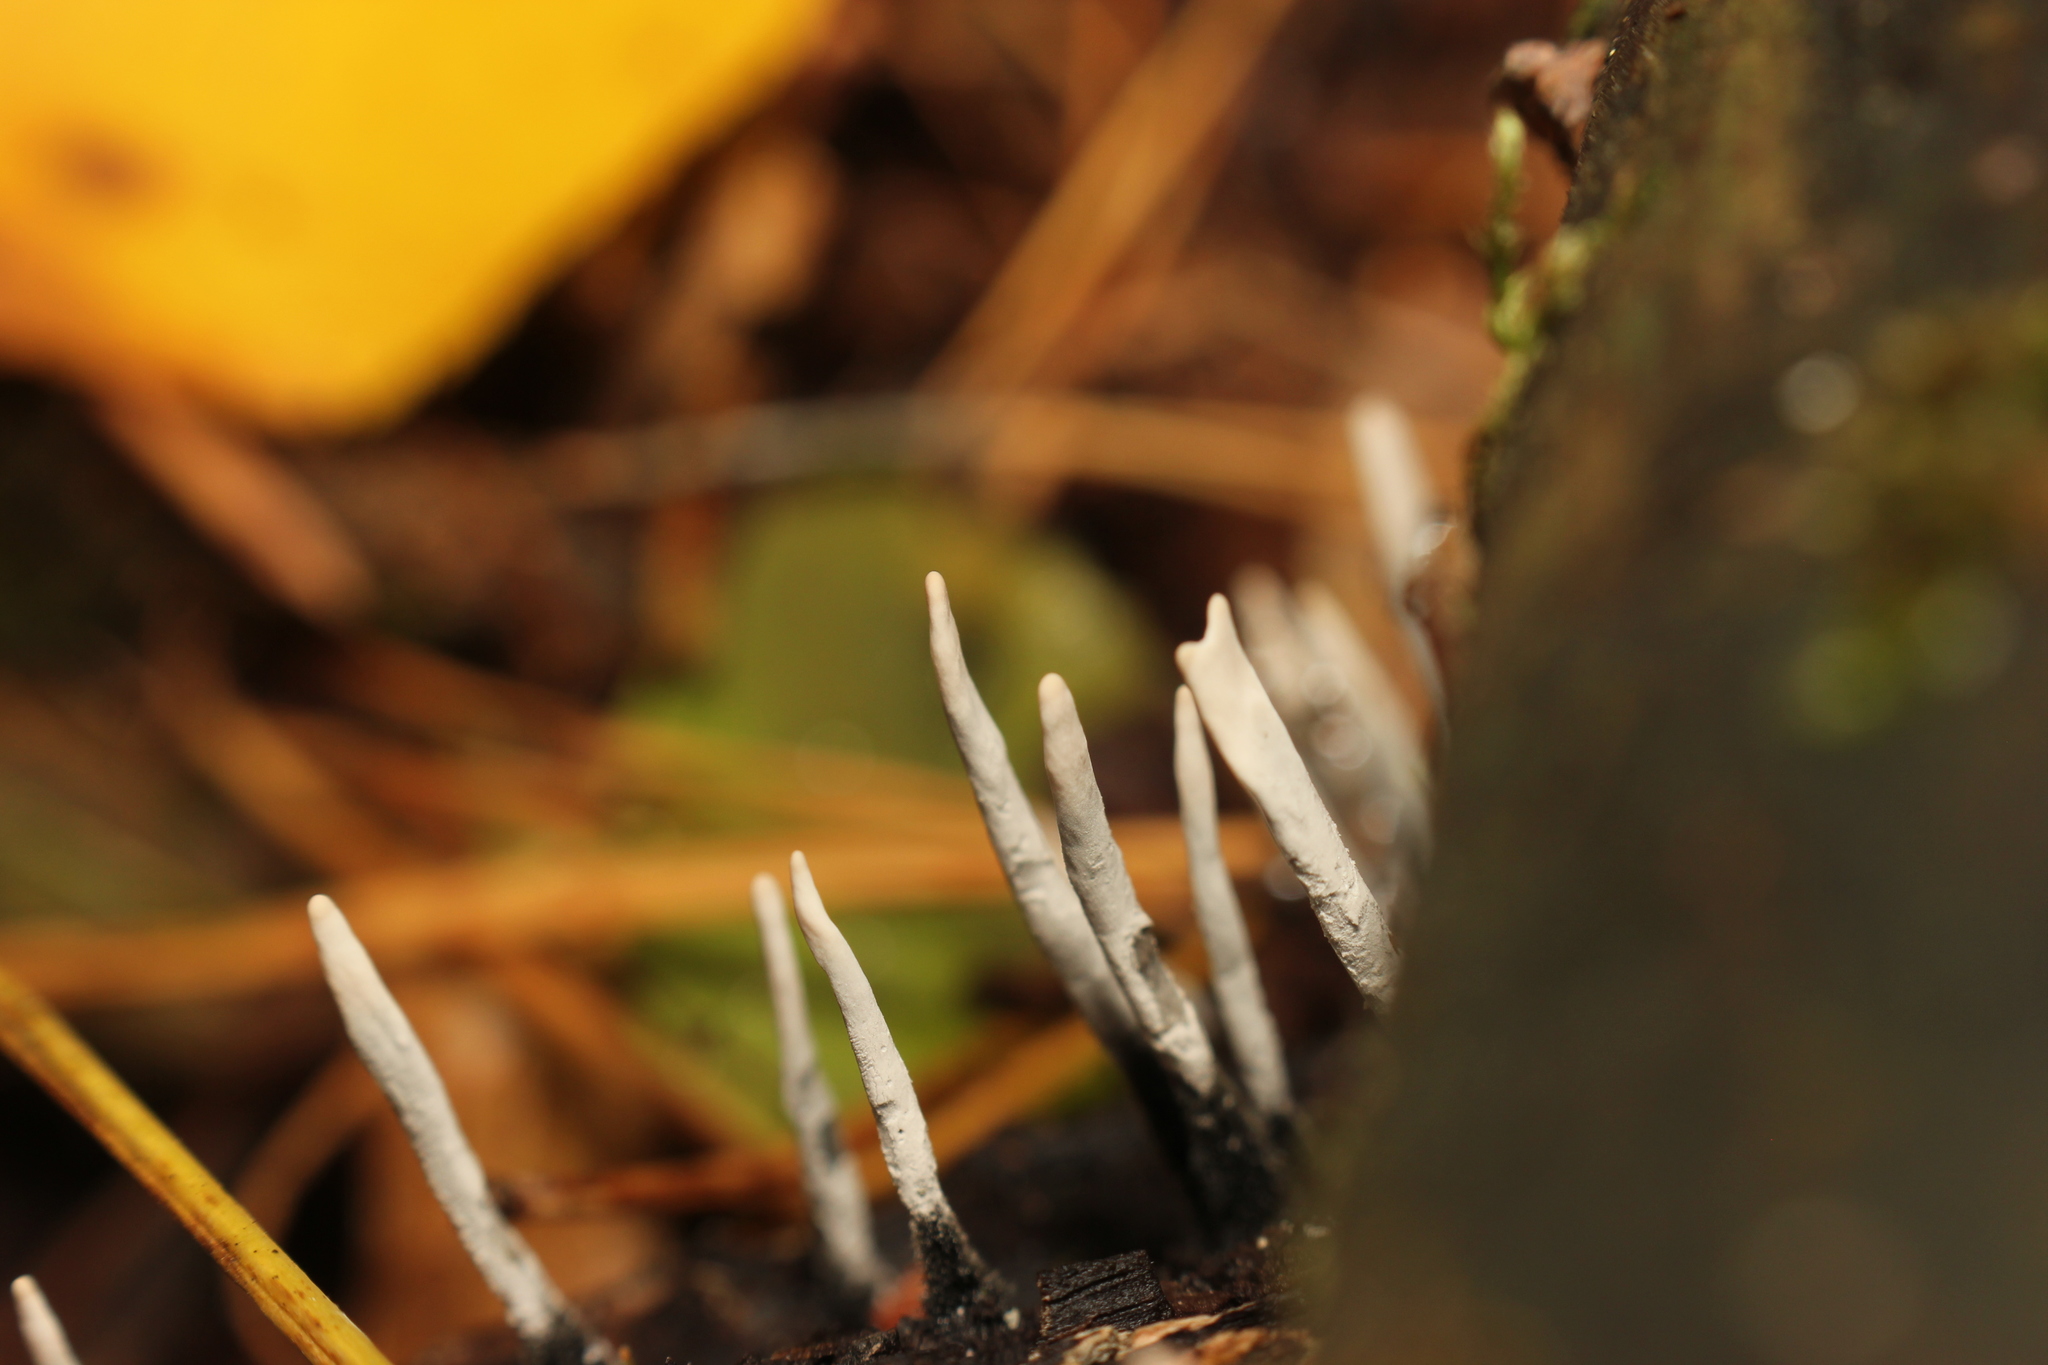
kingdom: Fungi
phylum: Ascomycota
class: Sordariomycetes
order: Xylariales
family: Xylariaceae
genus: Xylaria
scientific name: Xylaria hypoxylon
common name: Candle-snuff fungus
